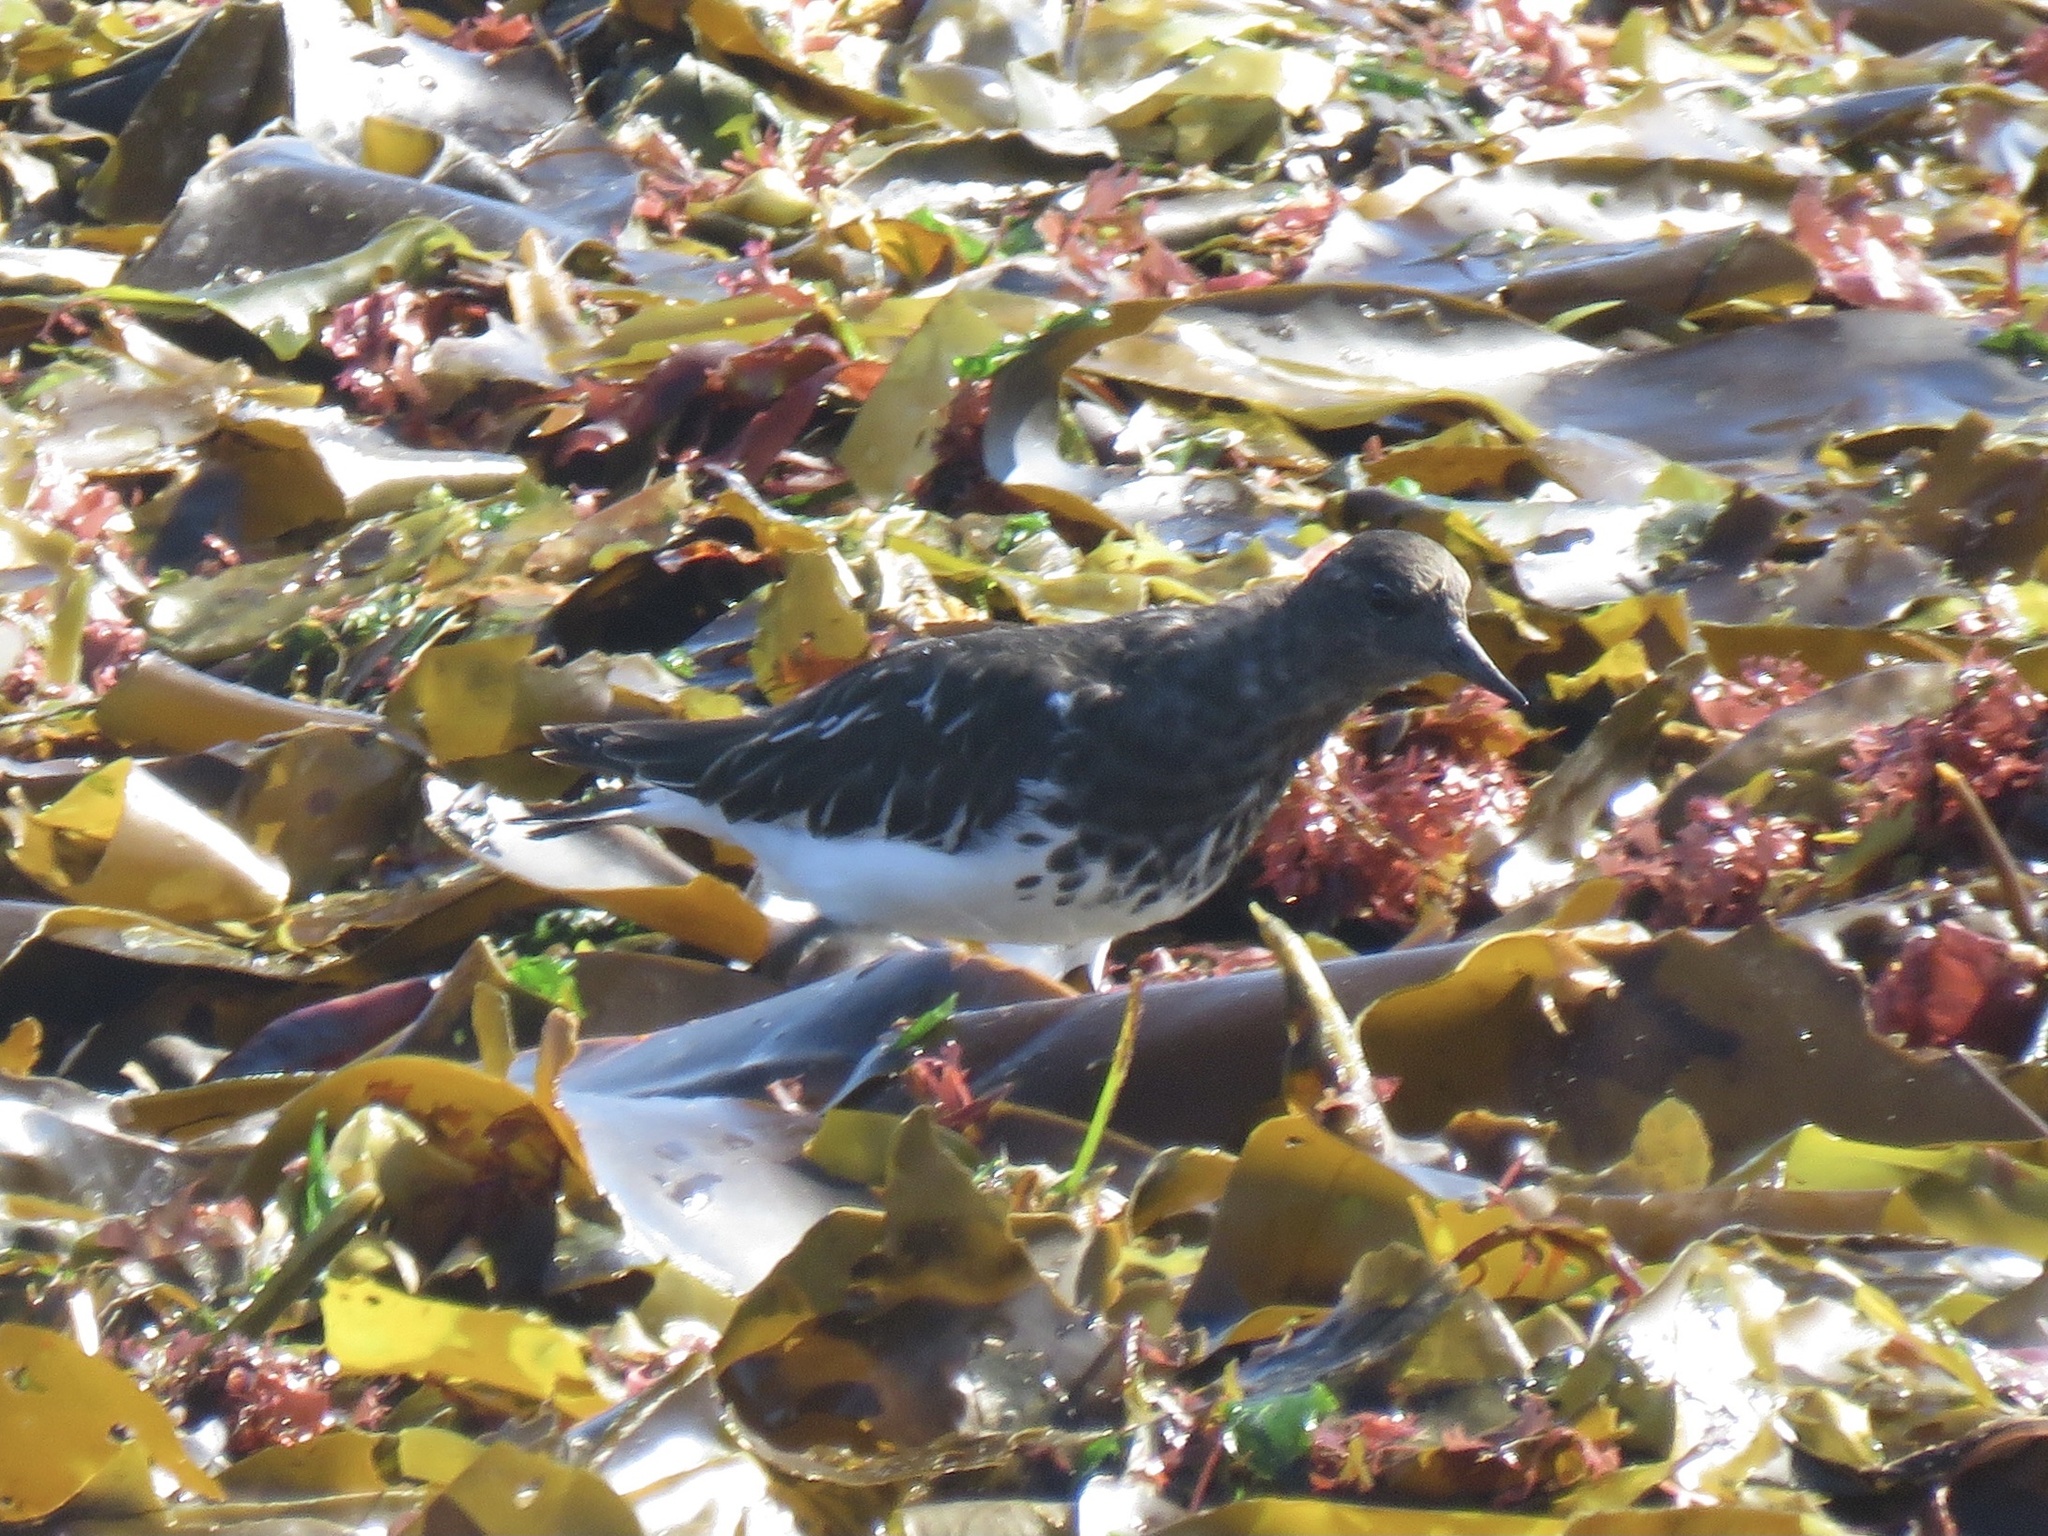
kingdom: Animalia
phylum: Chordata
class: Aves
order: Charadriiformes
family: Scolopacidae
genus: Arenaria
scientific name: Arenaria melanocephala
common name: Black turnstone
